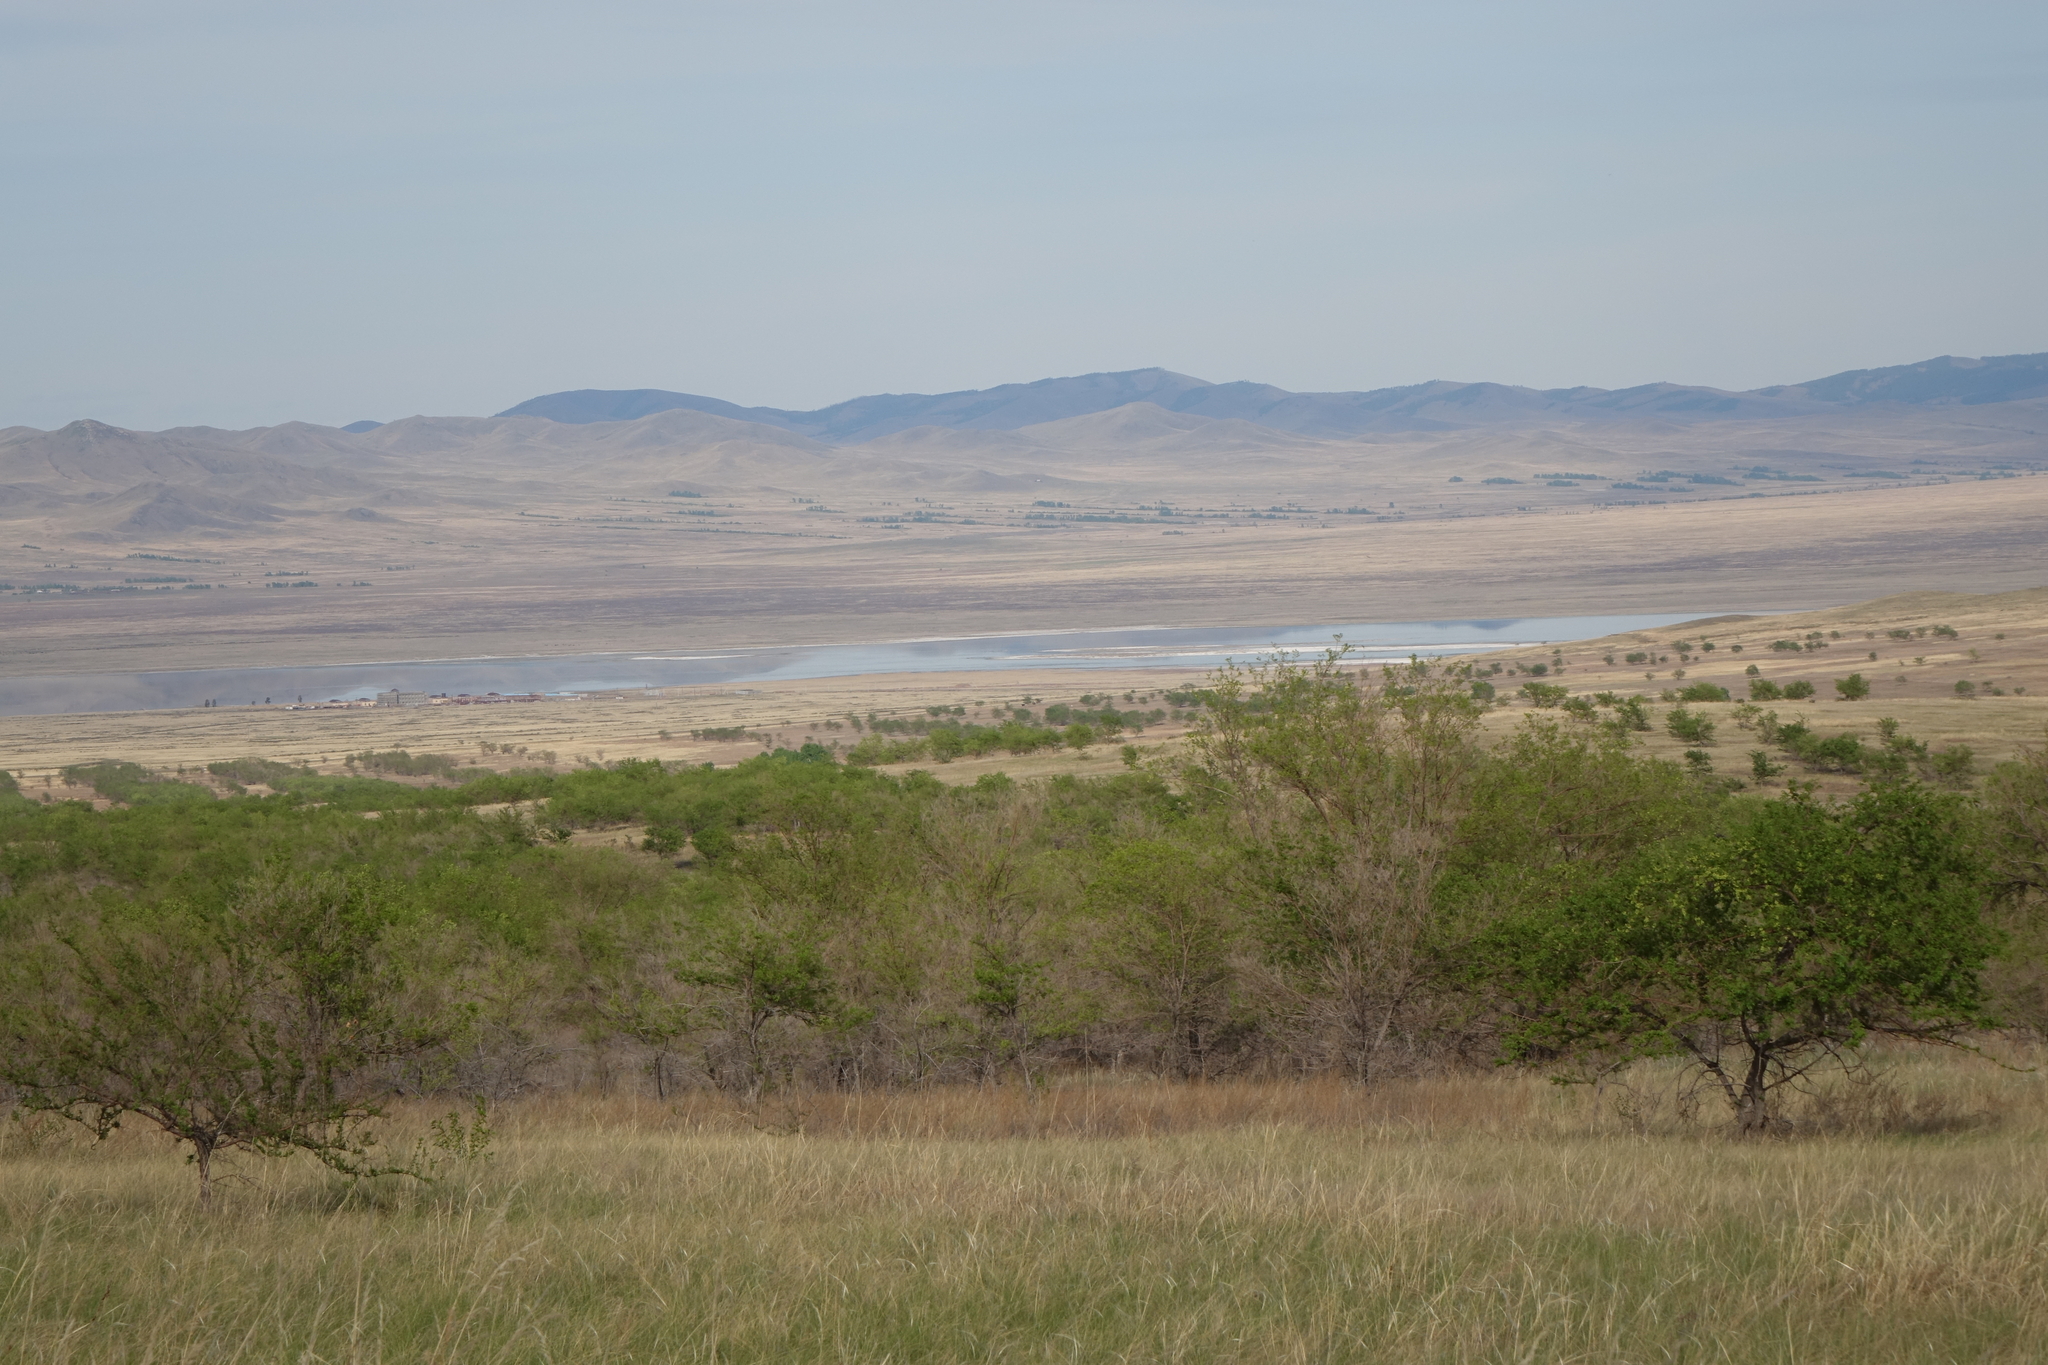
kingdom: Plantae
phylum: Tracheophyta
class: Magnoliopsida
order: Rosales
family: Ulmaceae
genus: Ulmus
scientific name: Ulmus pumila
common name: Siberian elm
